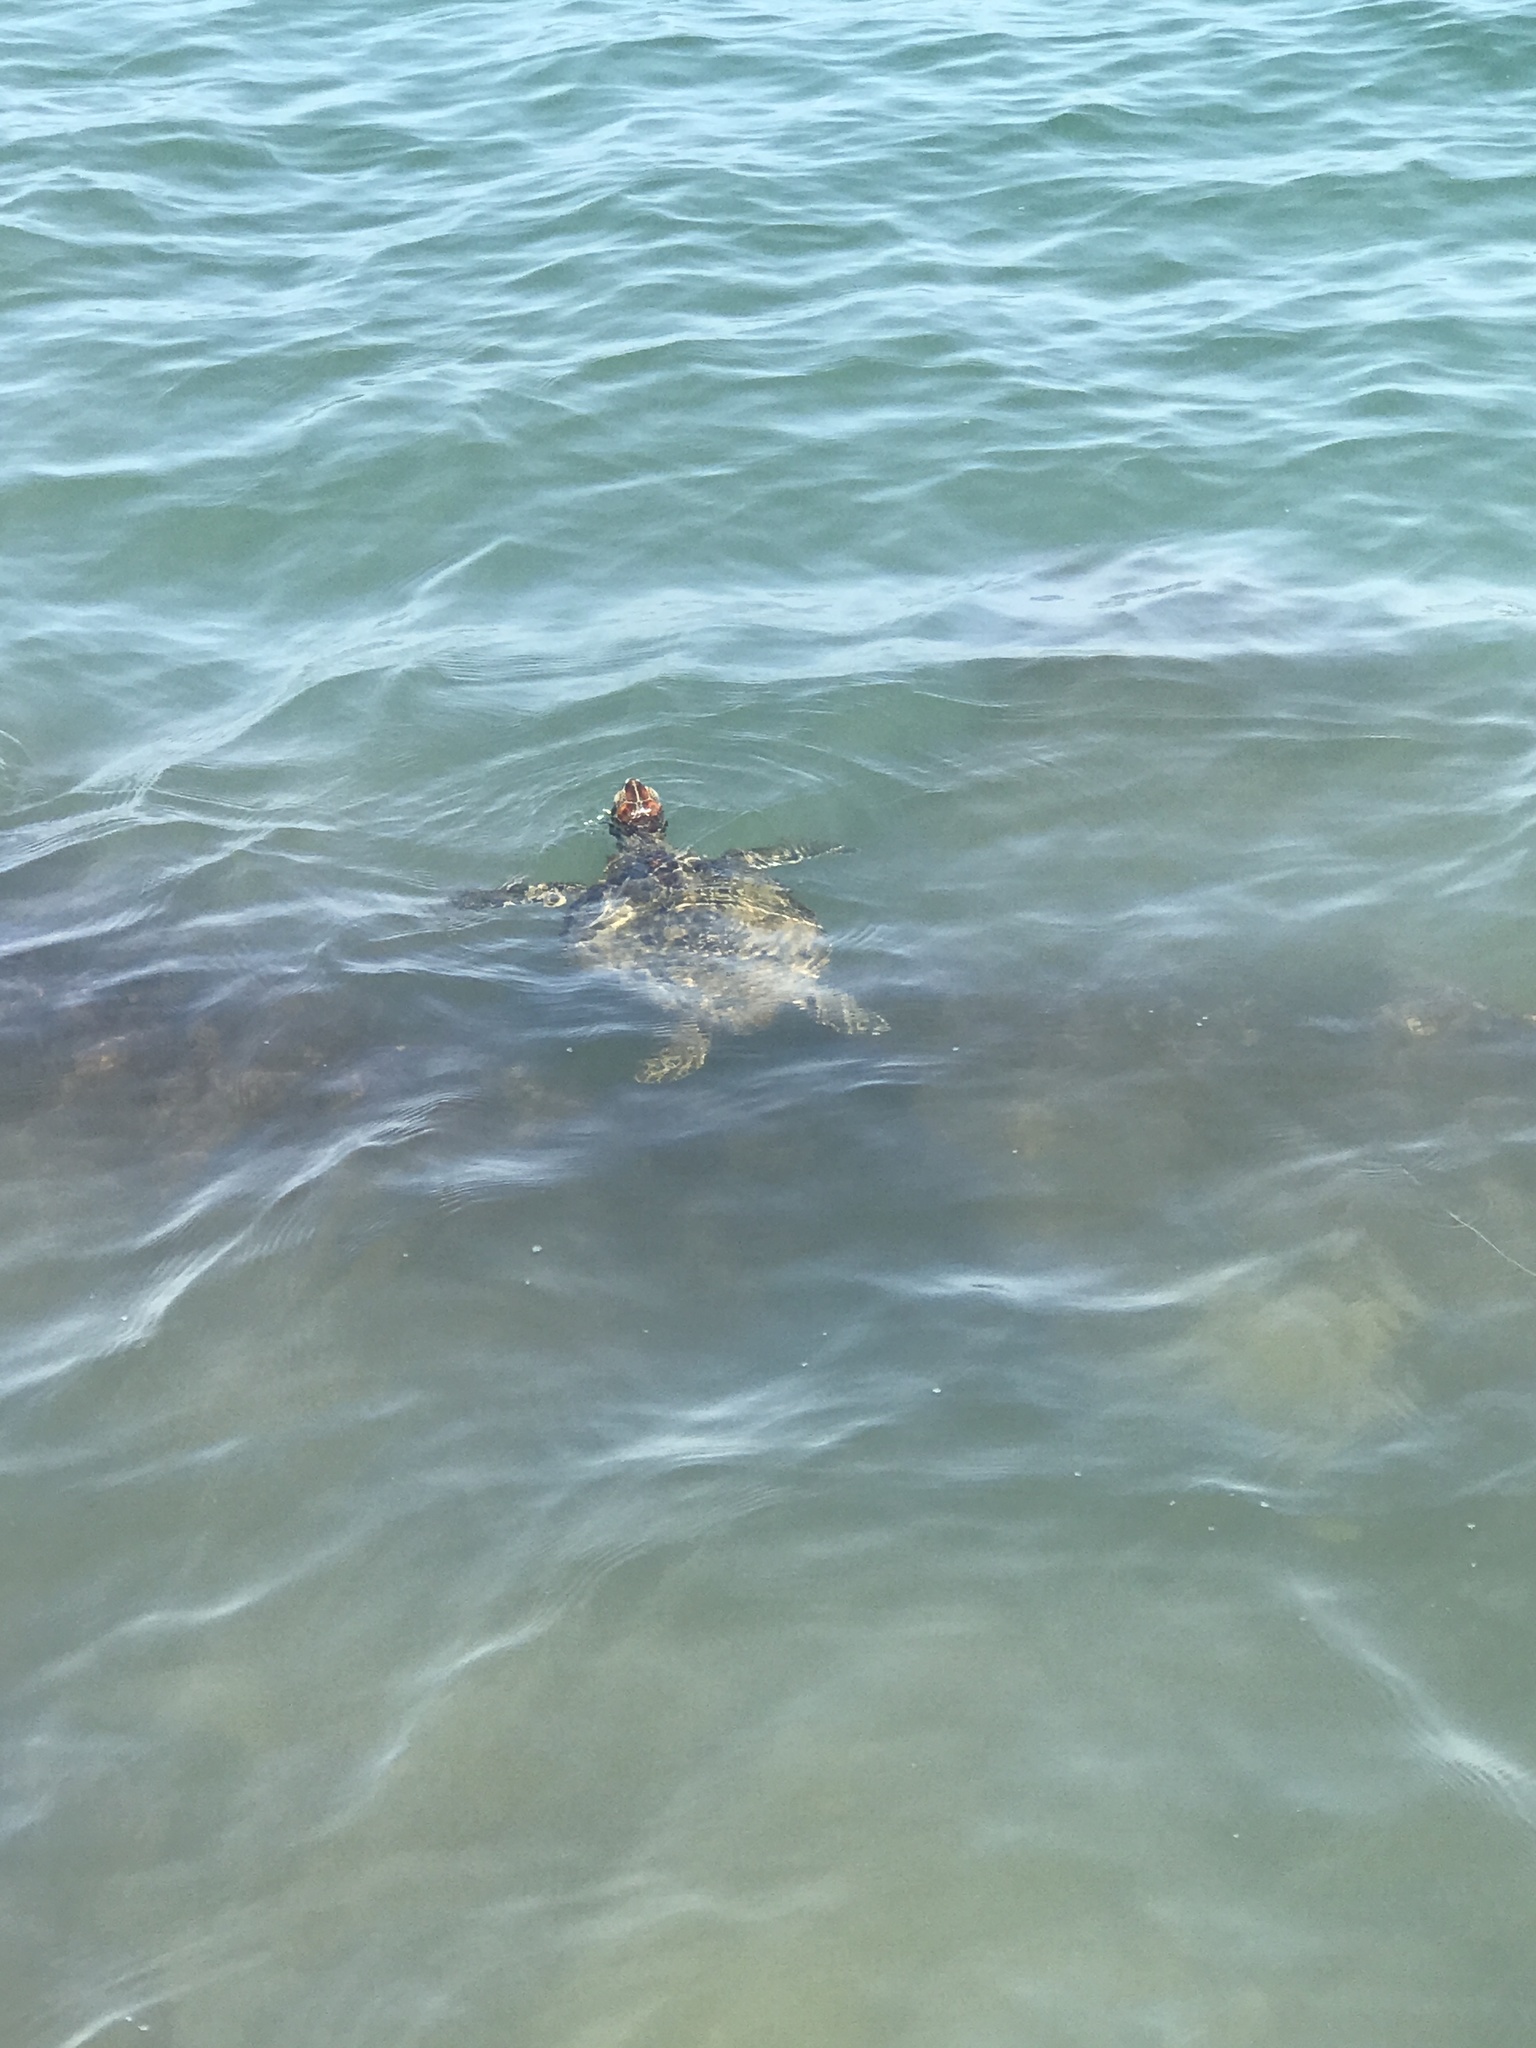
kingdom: Animalia
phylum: Chordata
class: Testudines
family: Cheloniidae
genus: Chelonia
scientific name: Chelonia mydas
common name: Green turtle
